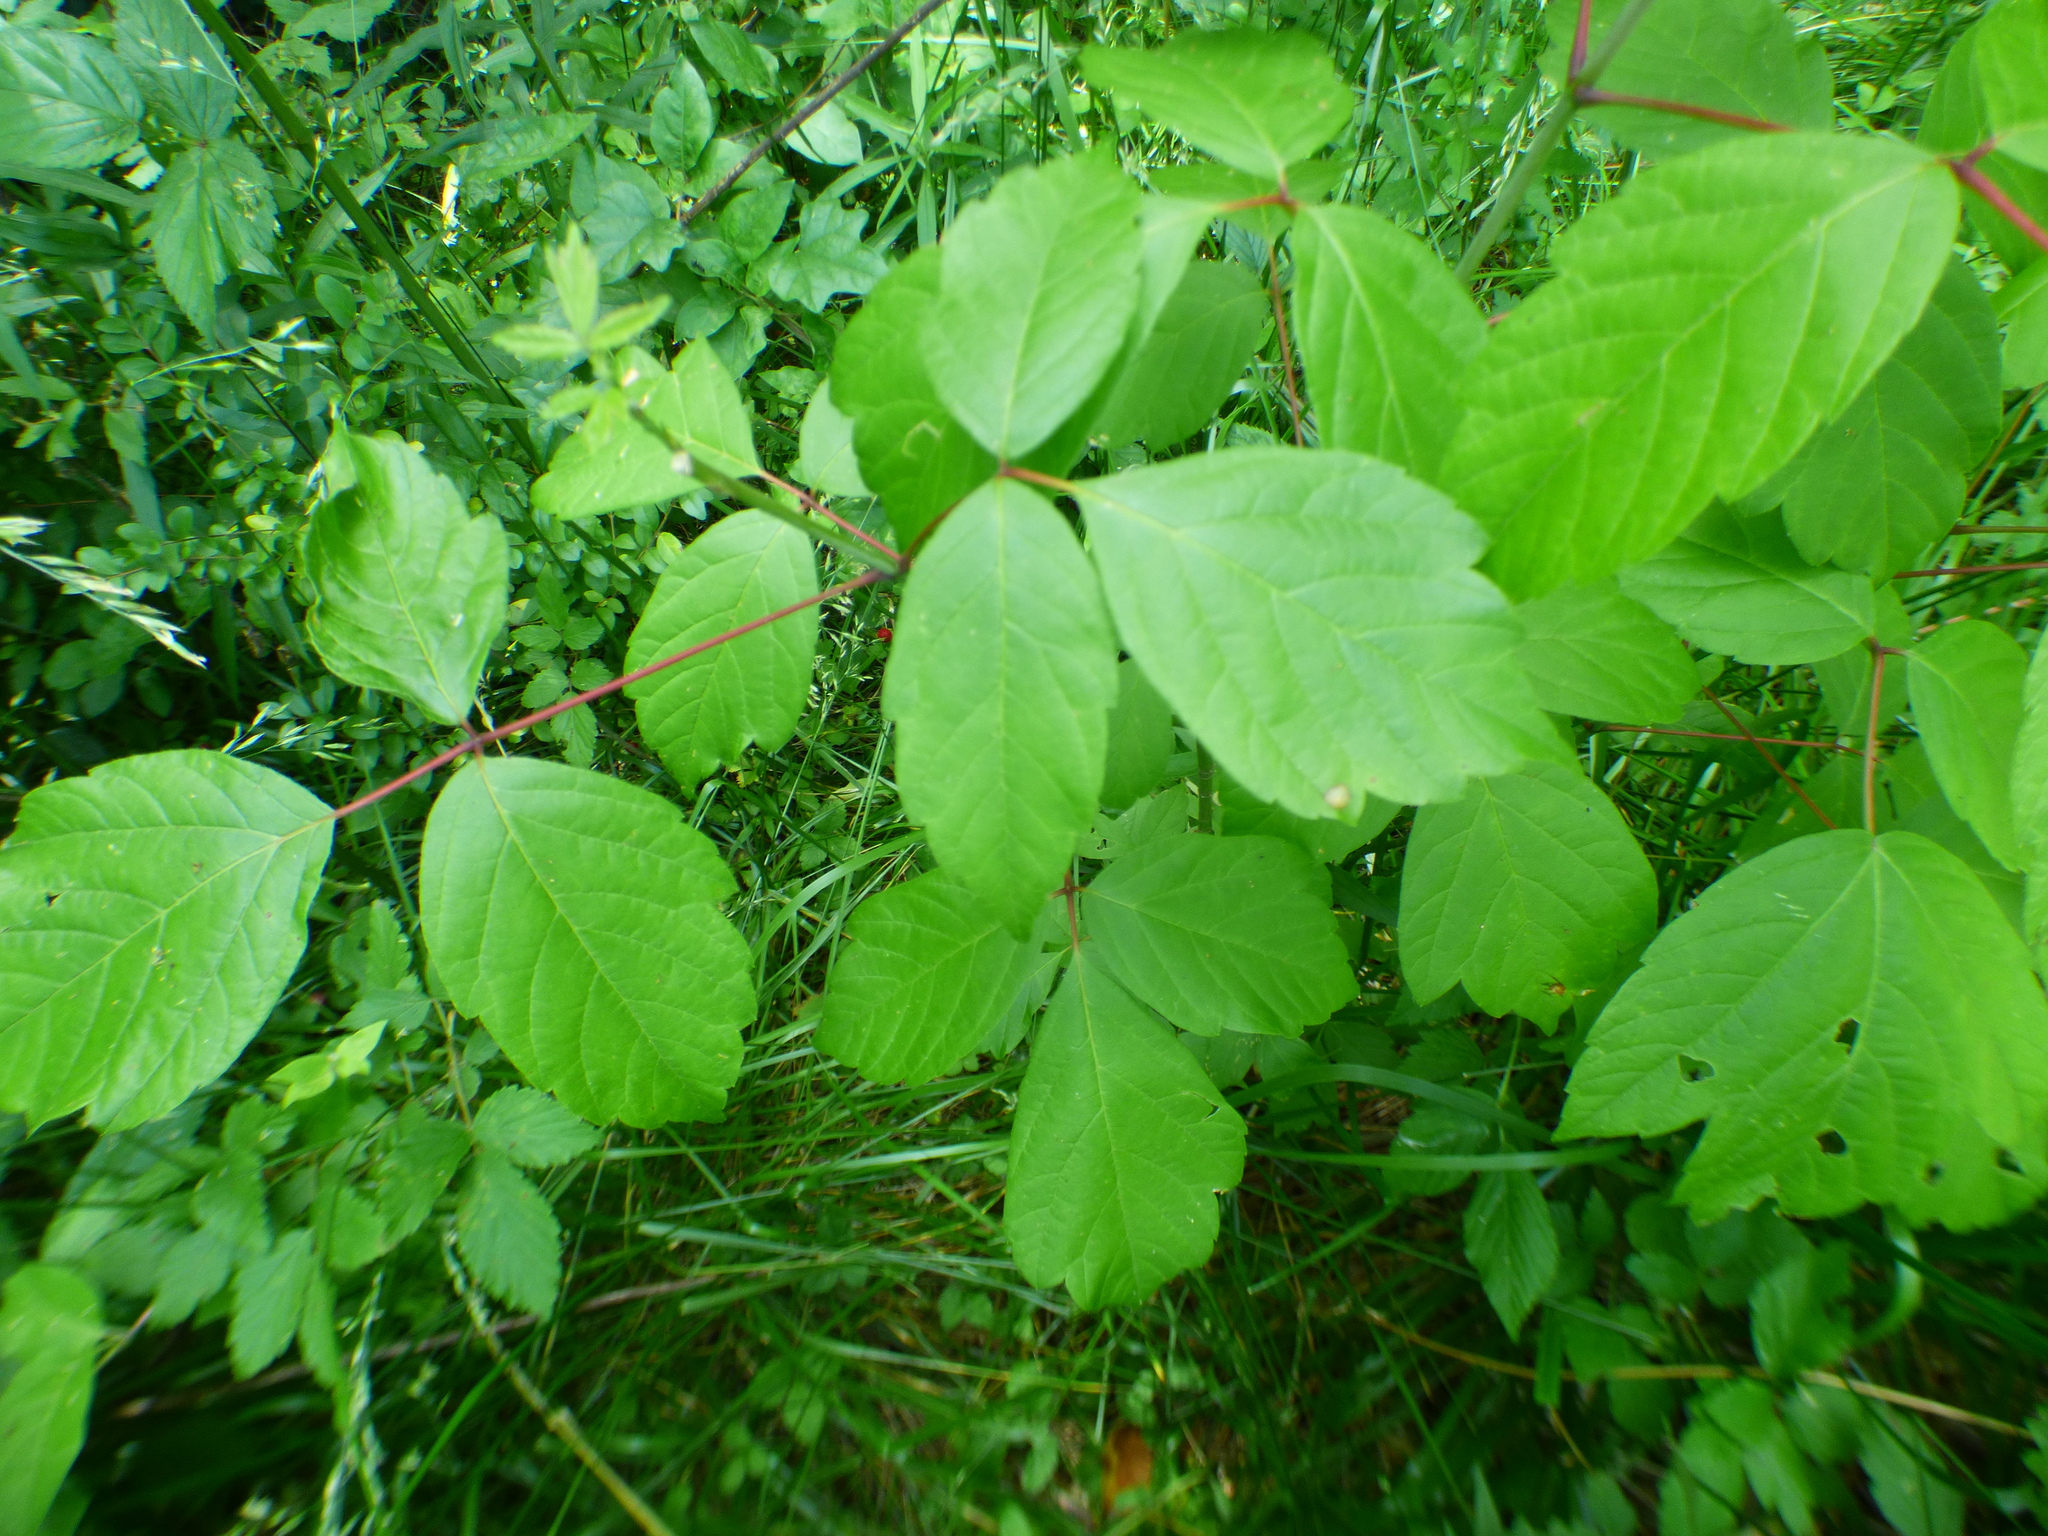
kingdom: Plantae
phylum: Tracheophyta
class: Magnoliopsida
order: Sapindales
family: Sapindaceae
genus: Acer
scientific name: Acer negundo
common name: Ashleaf maple
